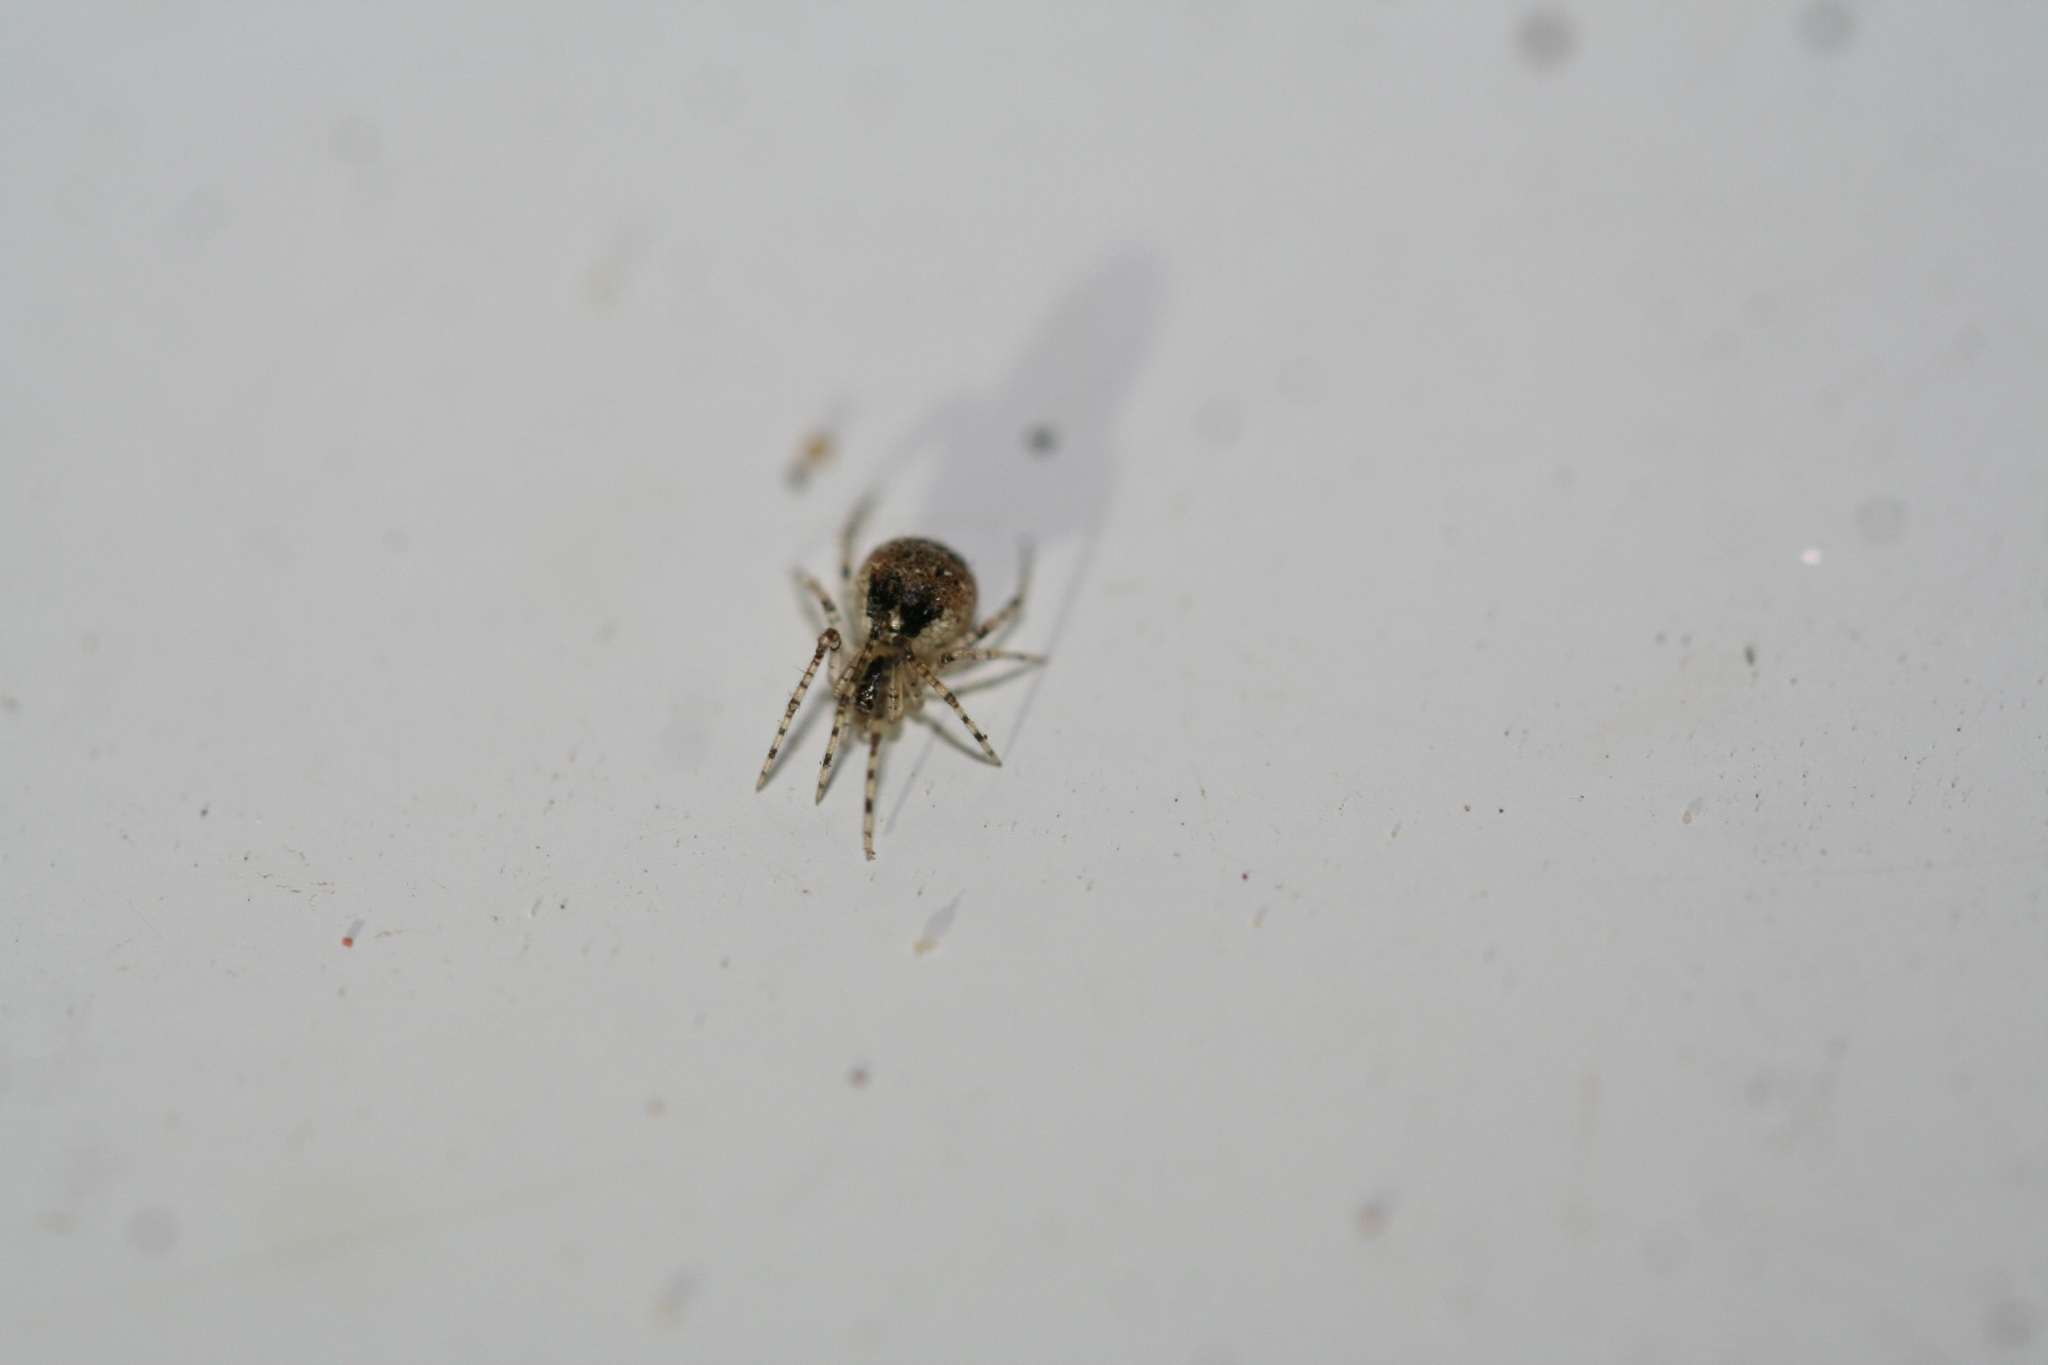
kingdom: Animalia
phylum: Arthropoda
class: Arachnida
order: Araneae
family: Theridiidae
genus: Platnickina
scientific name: Platnickina tincta
